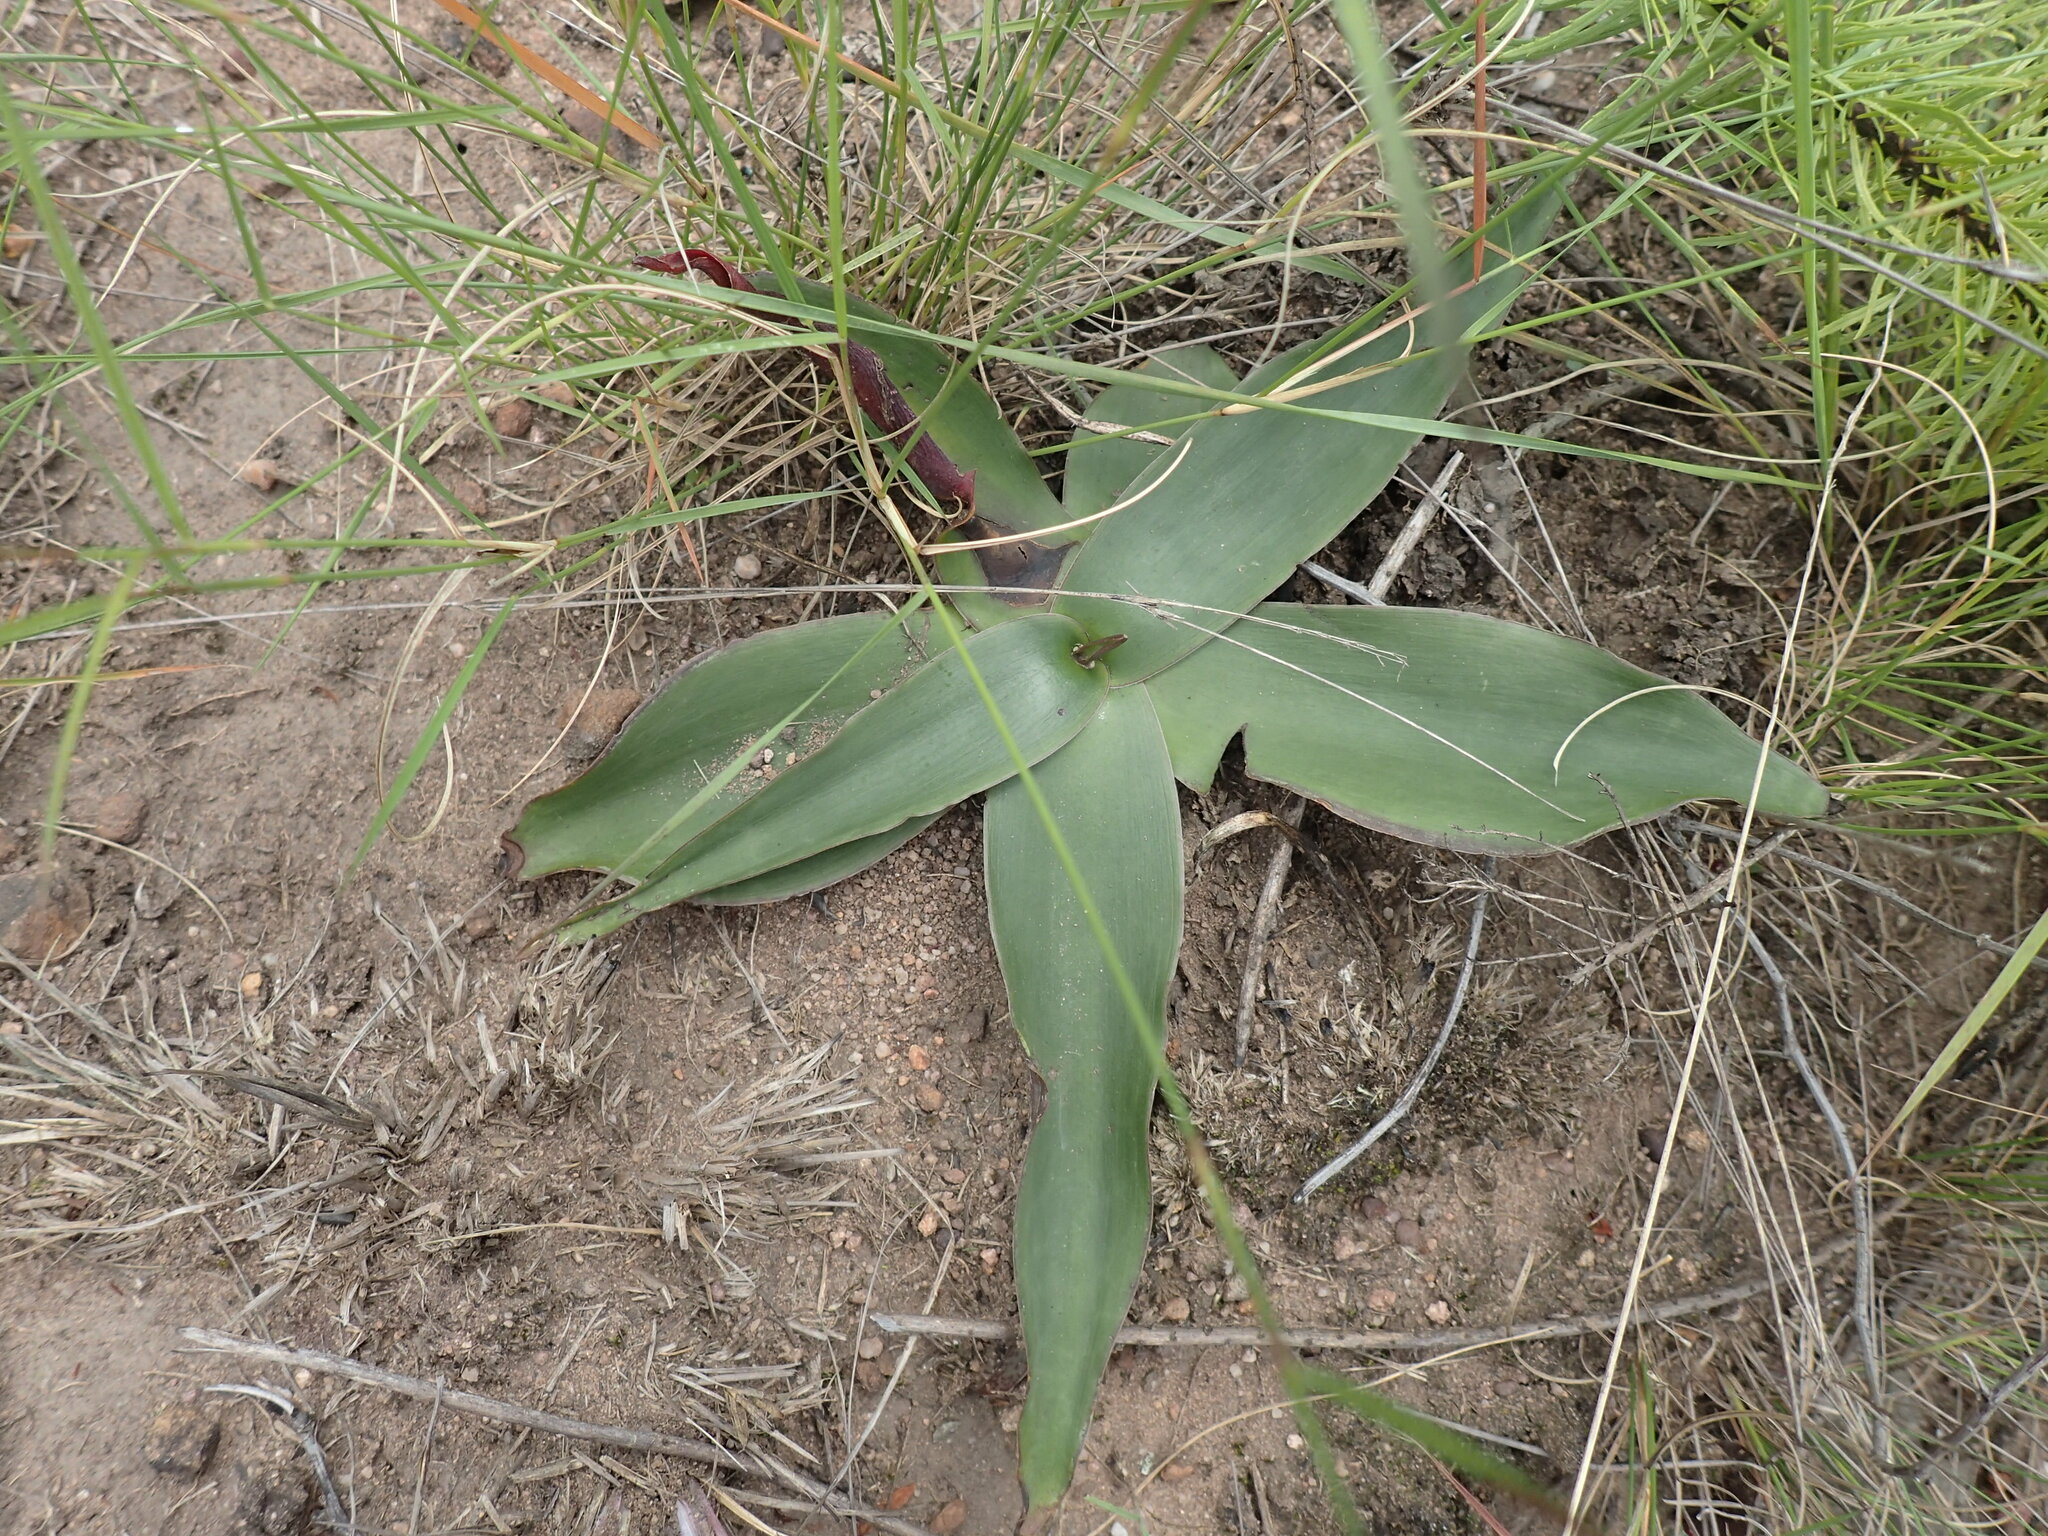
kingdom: Plantae
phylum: Tracheophyta
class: Liliopsida
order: Asparagales
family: Asparagaceae
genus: Ledebouria
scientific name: Ledebouria ovatifolia
